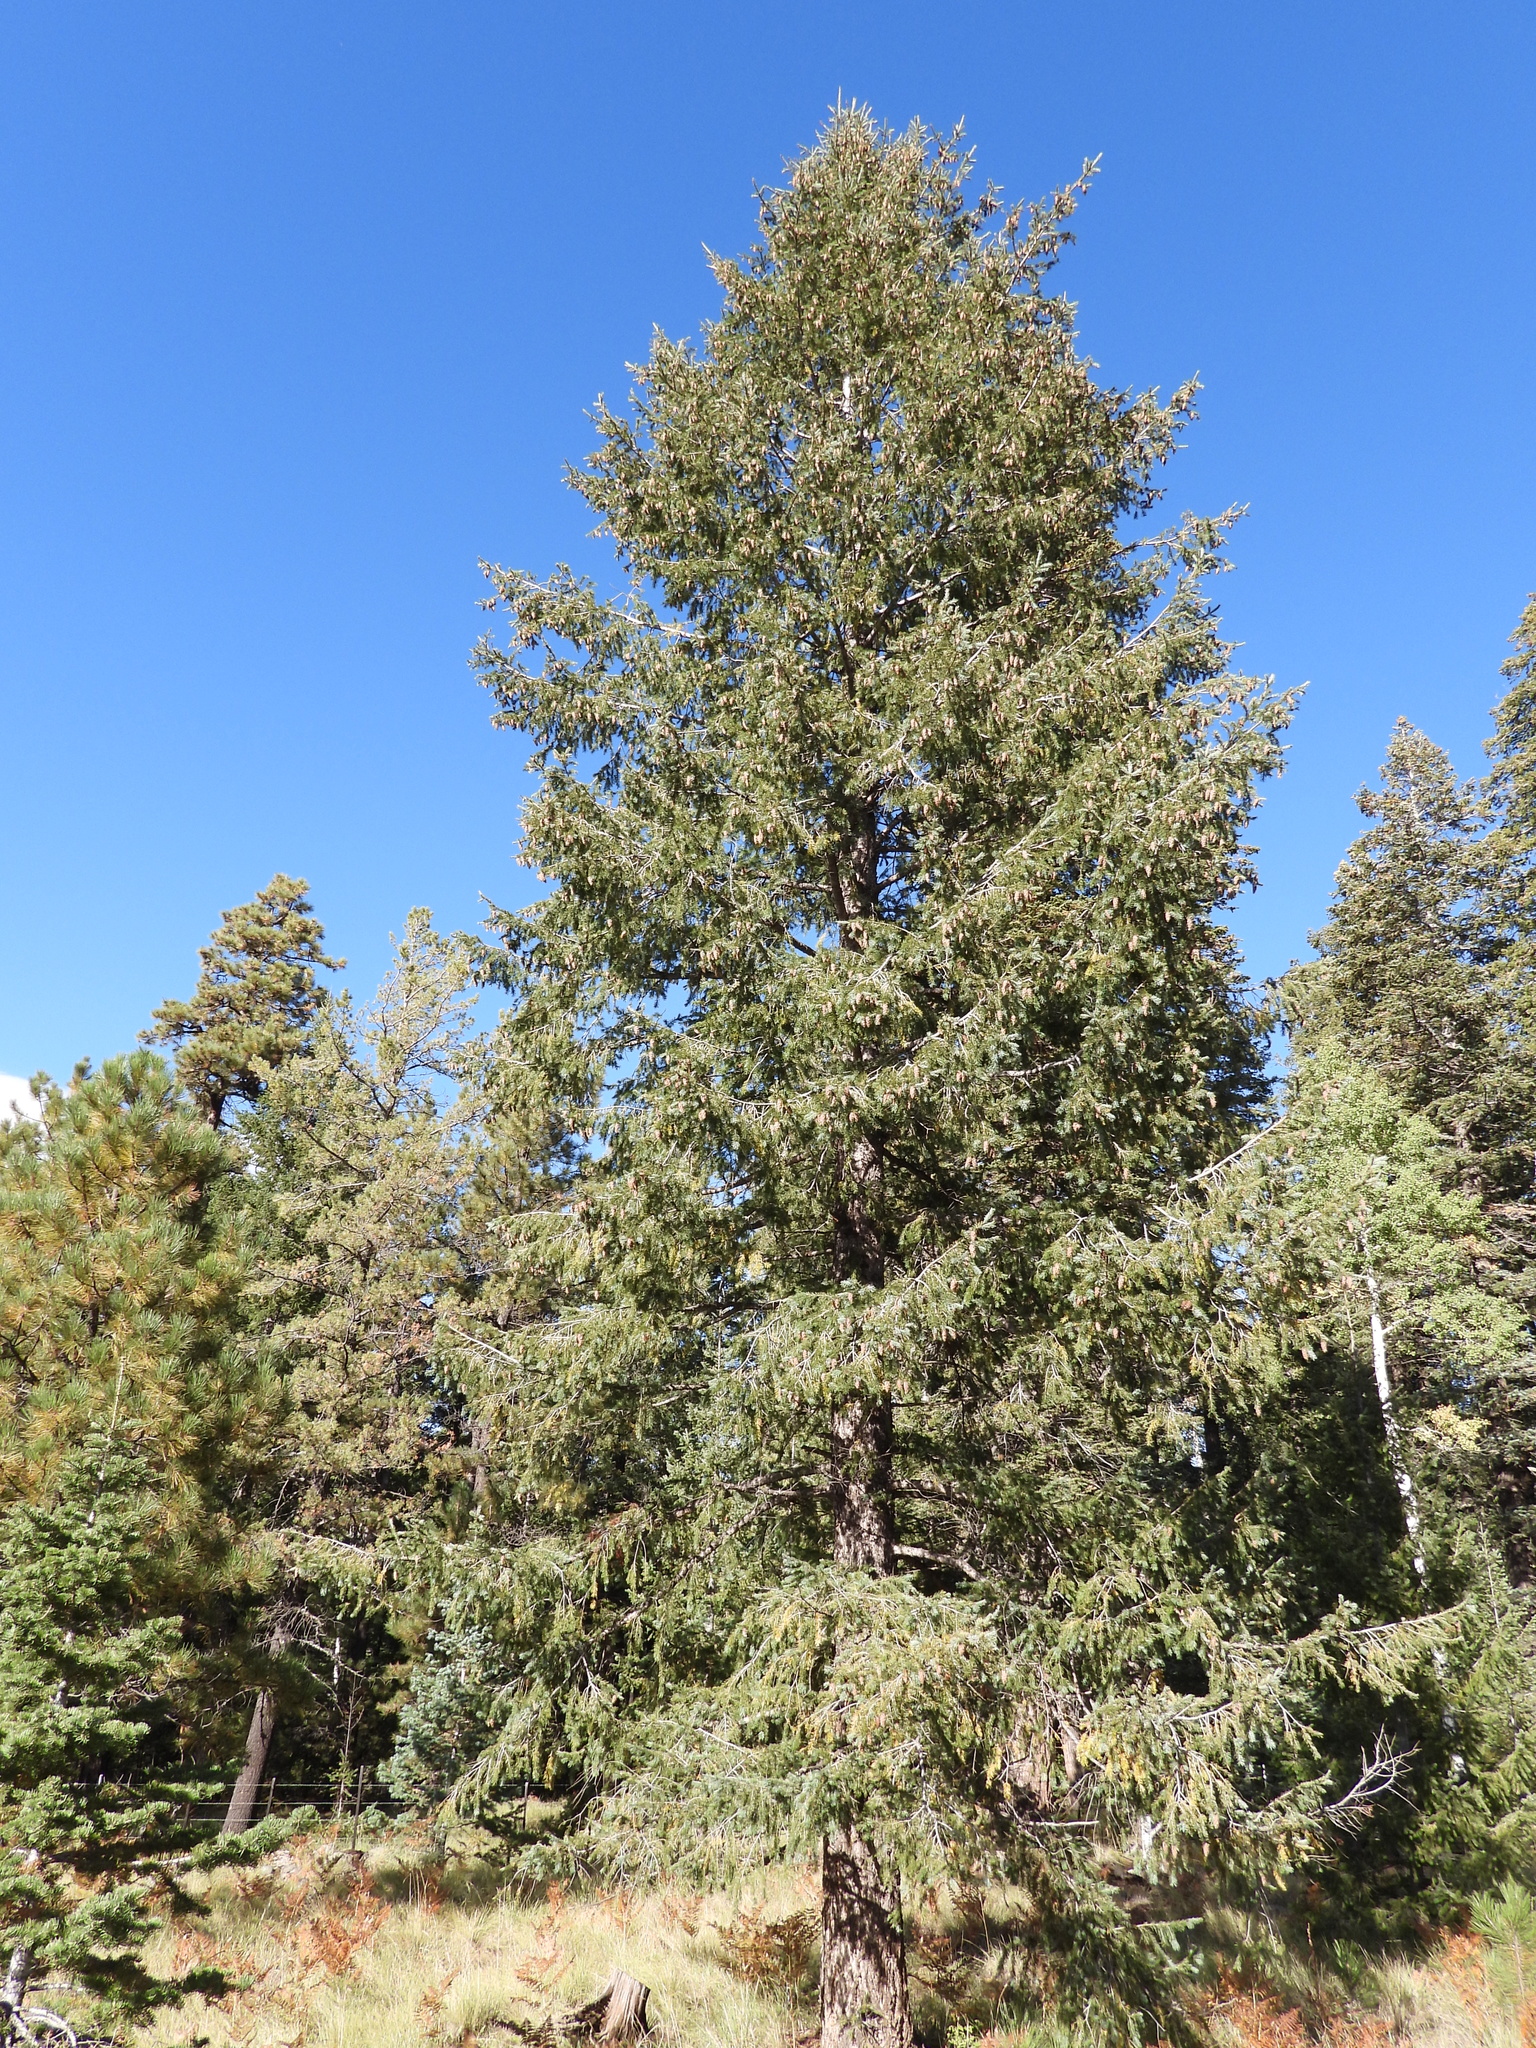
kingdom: Plantae
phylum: Tracheophyta
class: Pinopsida
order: Pinales
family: Pinaceae
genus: Pseudotsuga
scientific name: Pseudotsuga menziesii
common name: Douglas fir
